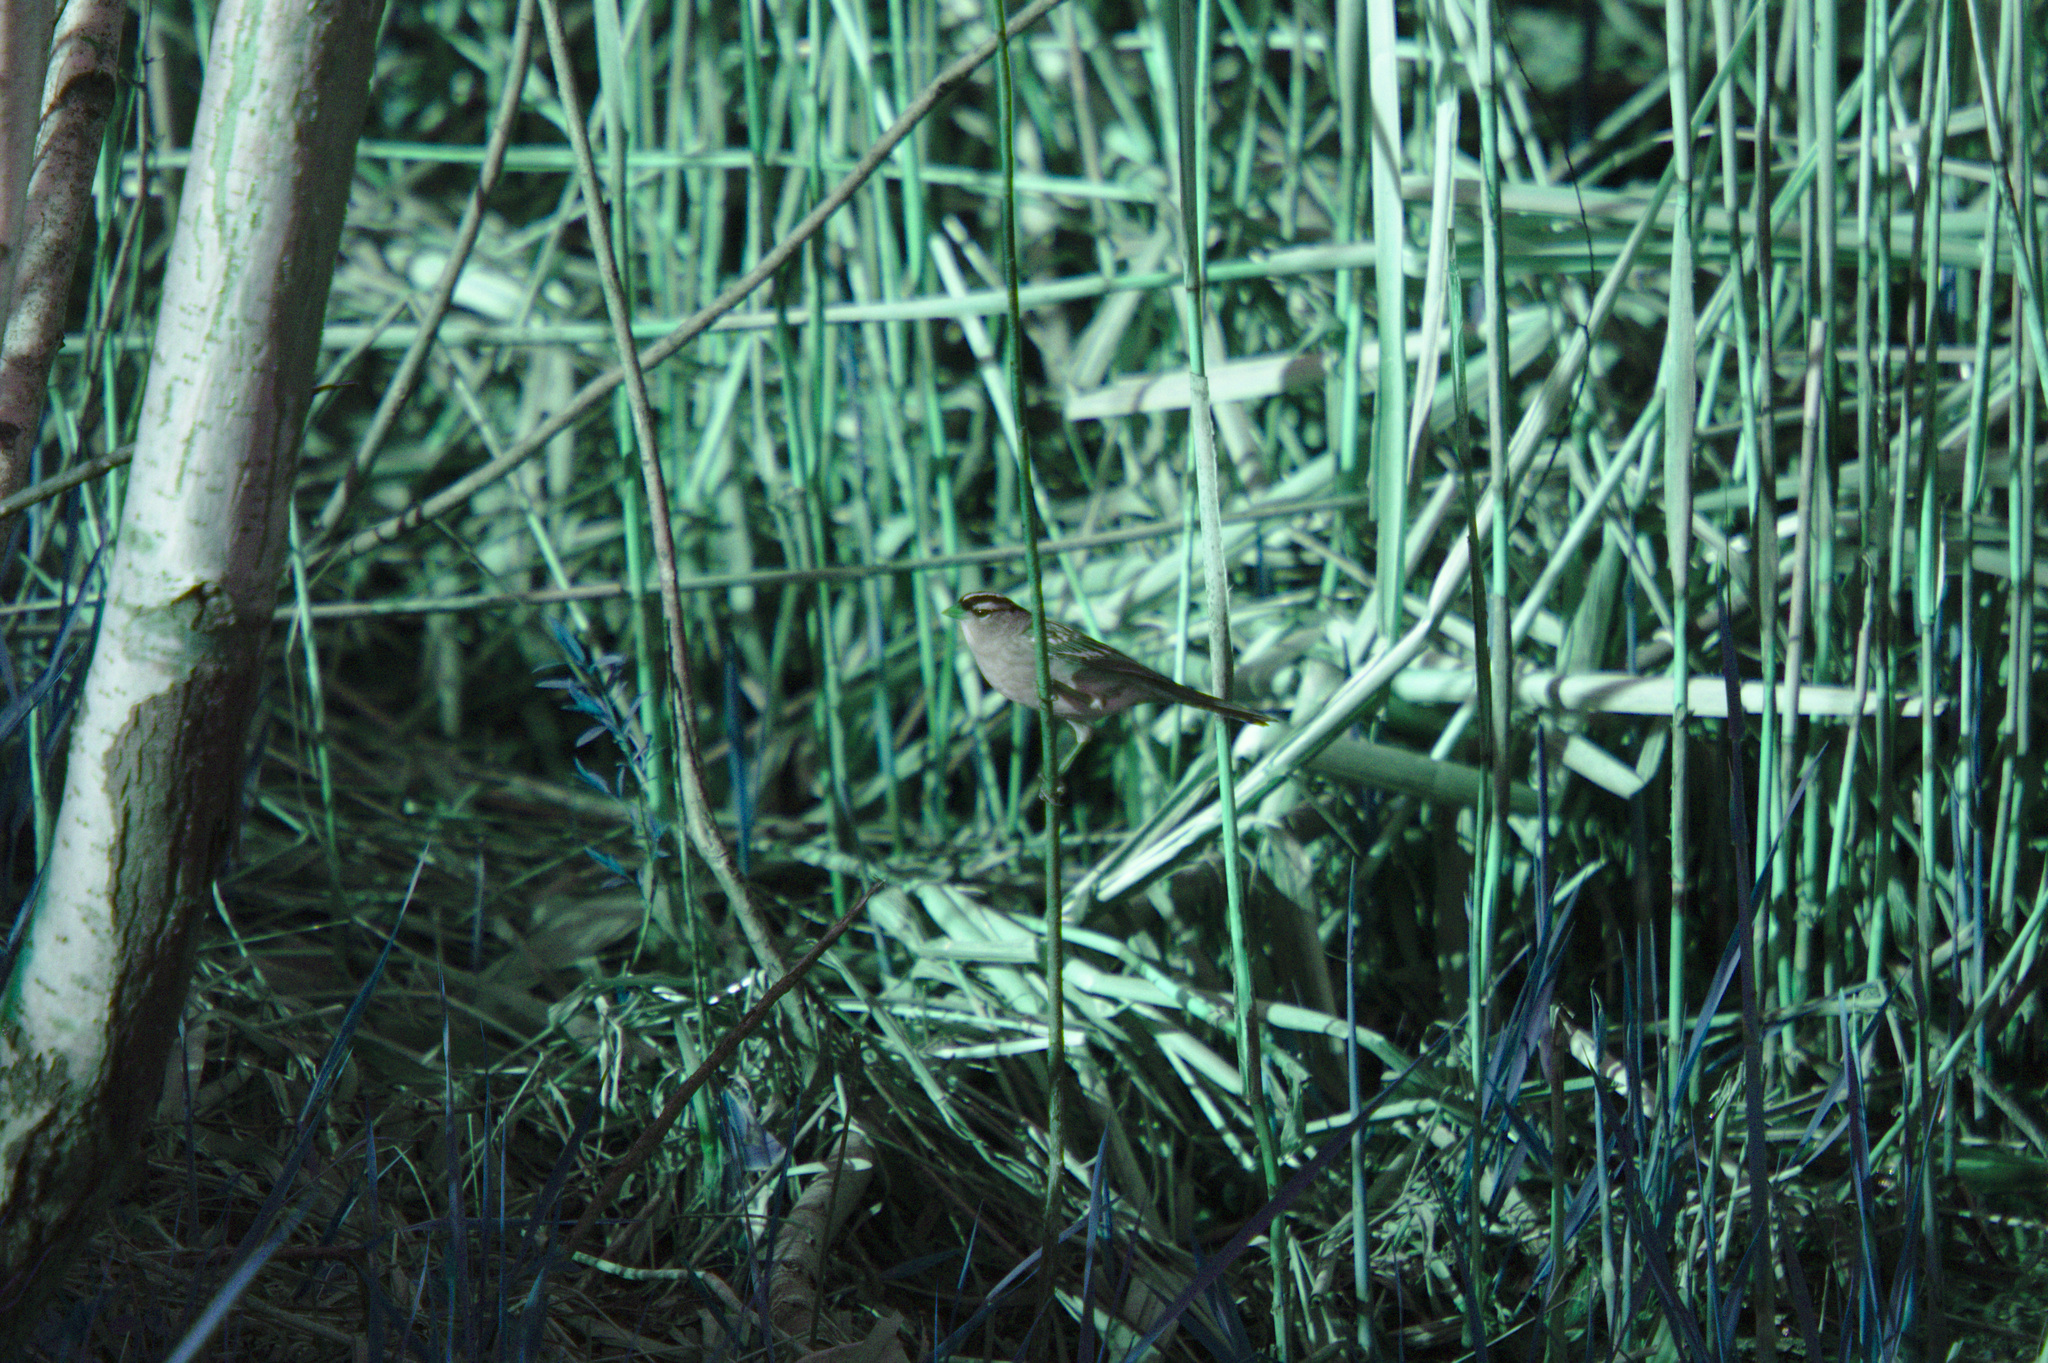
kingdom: Animalia
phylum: Chordata
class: Aves
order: Passeriformes
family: Passerellidae
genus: Zonotrichia
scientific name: Zonotrichia leucophrys
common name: White-crowned sparrow
